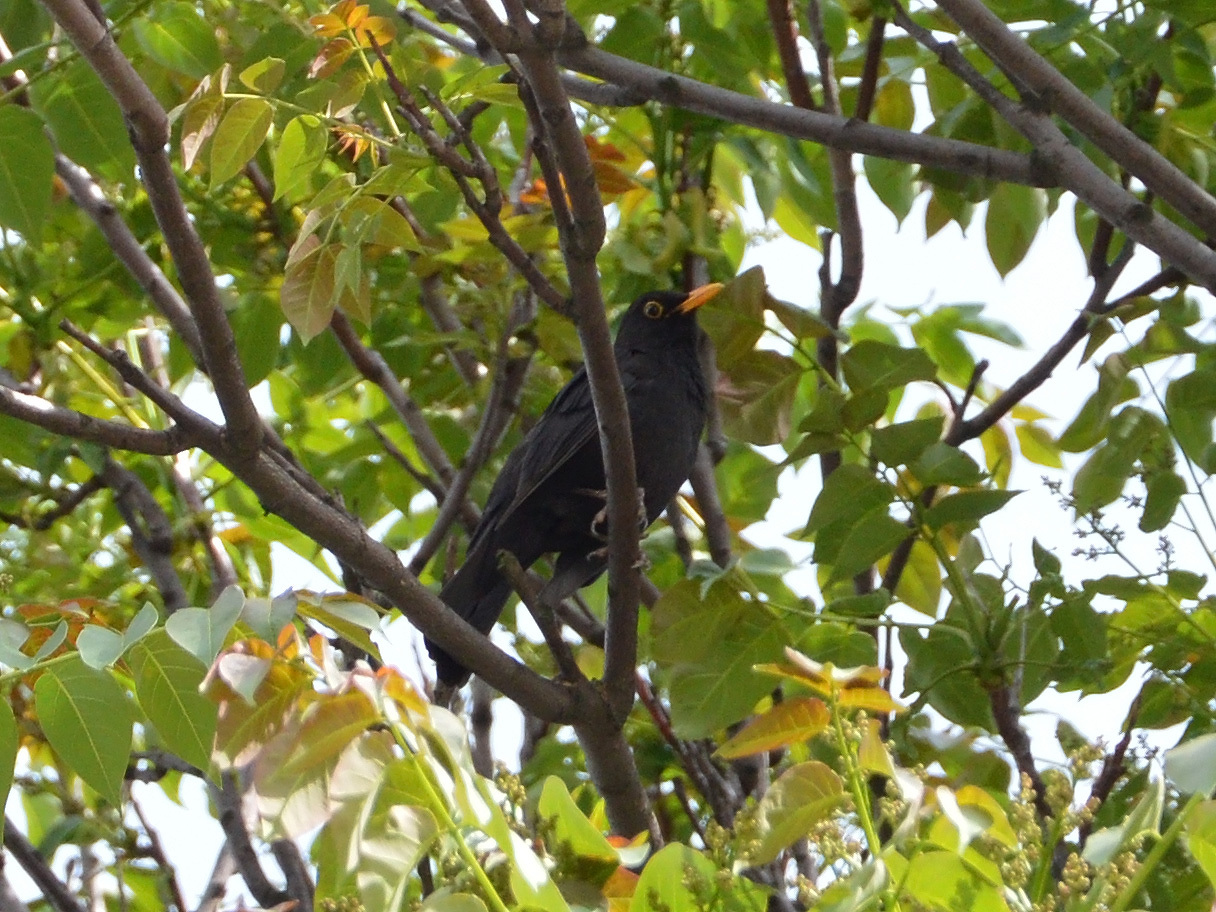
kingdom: Animalia
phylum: Chordata
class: Aves
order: Passeriformes
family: Turdidae
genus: Turdus
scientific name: Turdus merula
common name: Common blackbird
